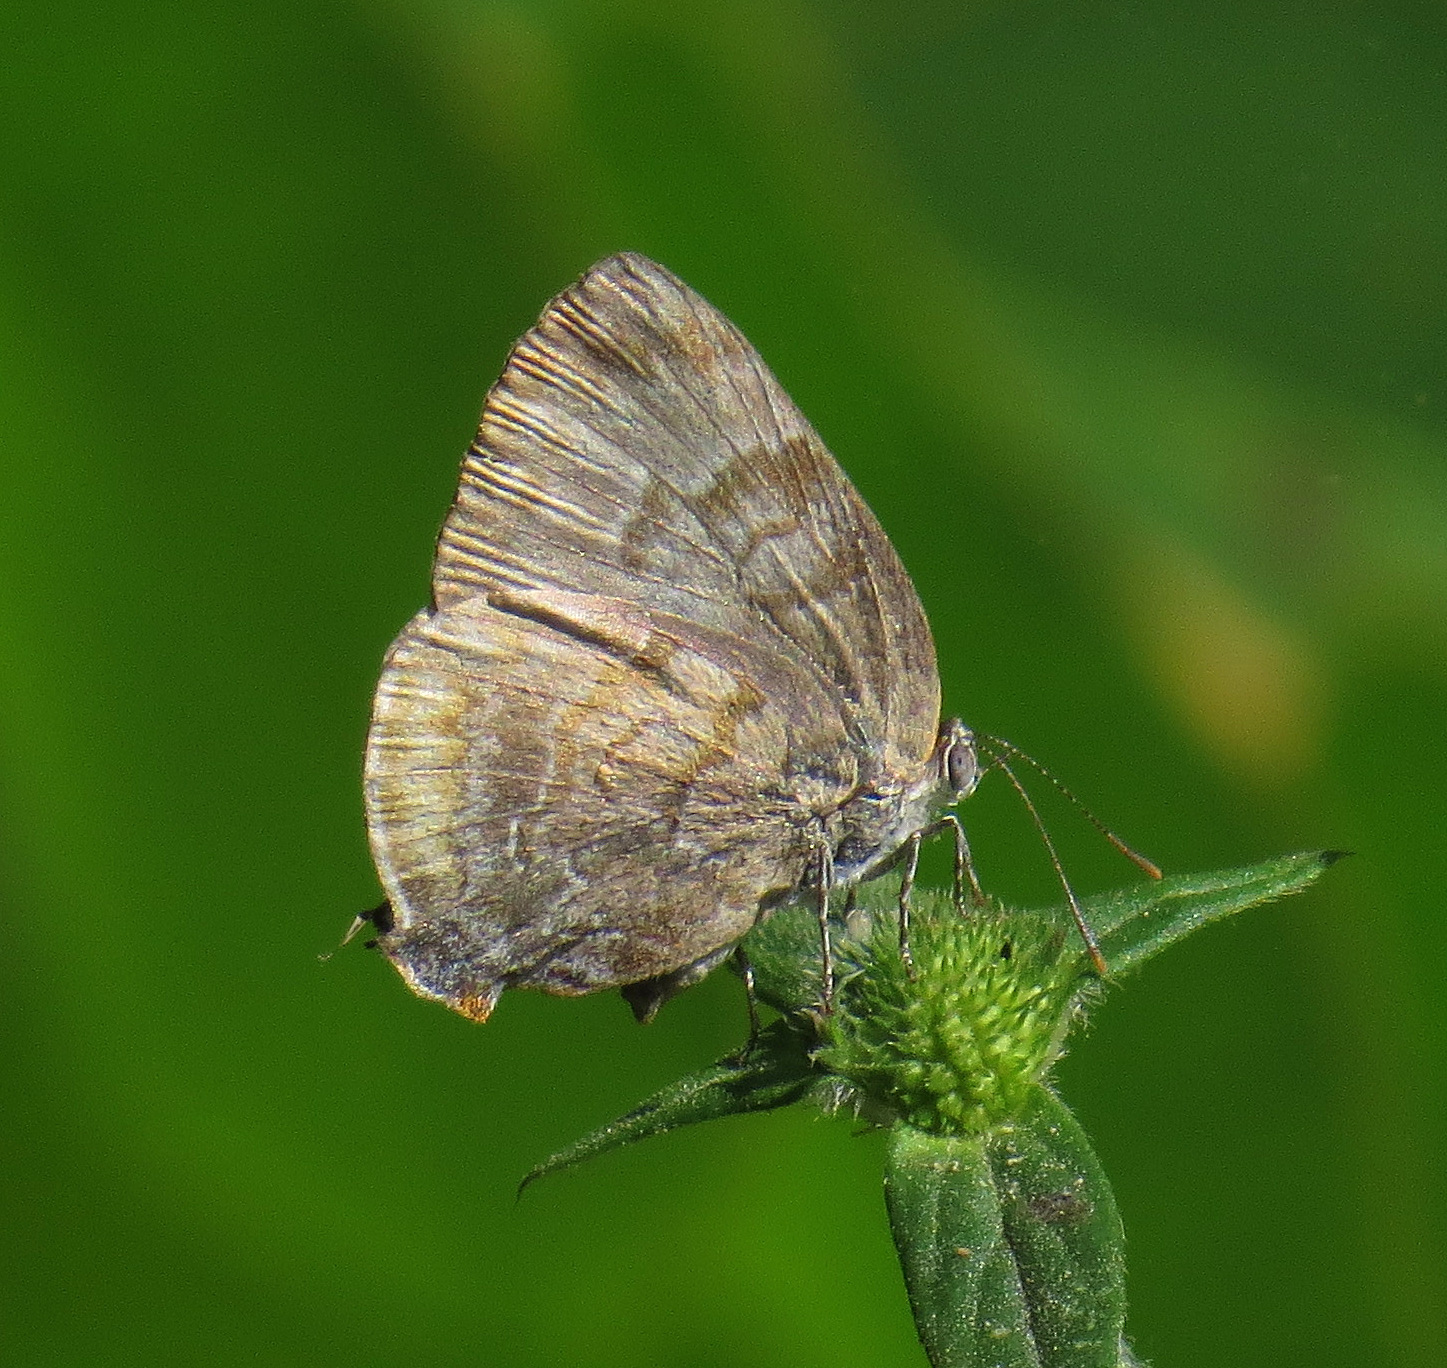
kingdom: Animalia
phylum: Arthropoda
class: Insecta
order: Lepidoptera
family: Lycaenidae
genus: Rekoa
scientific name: Rekoa palegon
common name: Gold-bordered hairstreak
